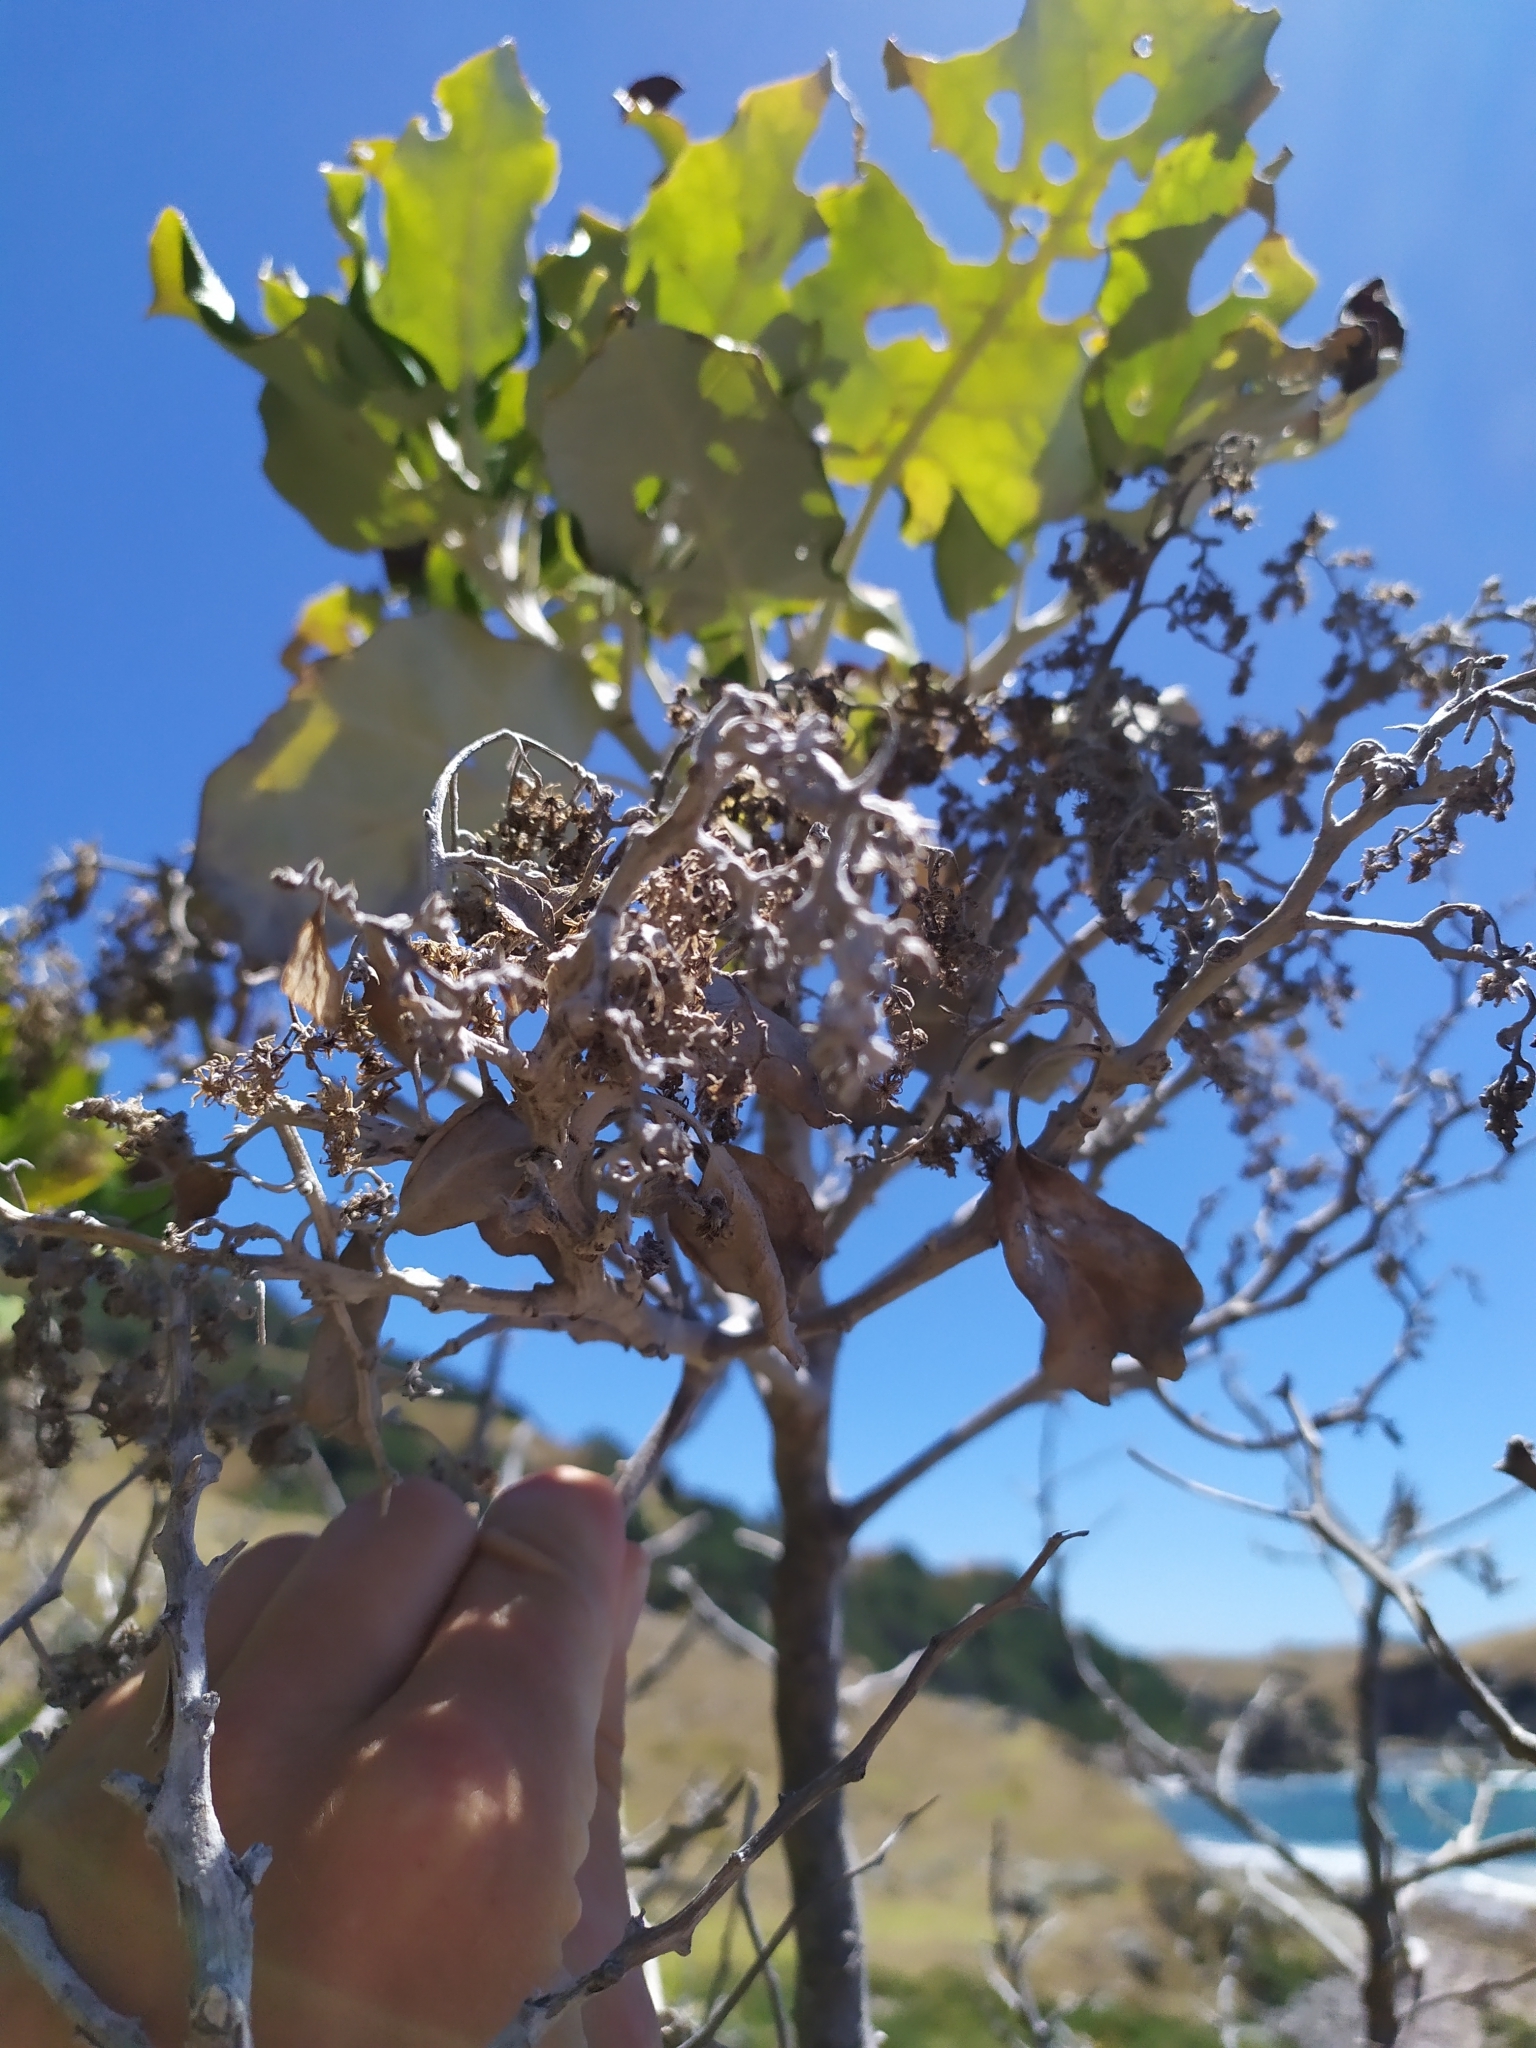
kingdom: Plantae
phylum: Tracheophyta
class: Magnoliopsida
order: Asterales
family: Asteraceae
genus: Brachyglottis
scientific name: Brachyglottis repanda
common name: Hedge ragwort
